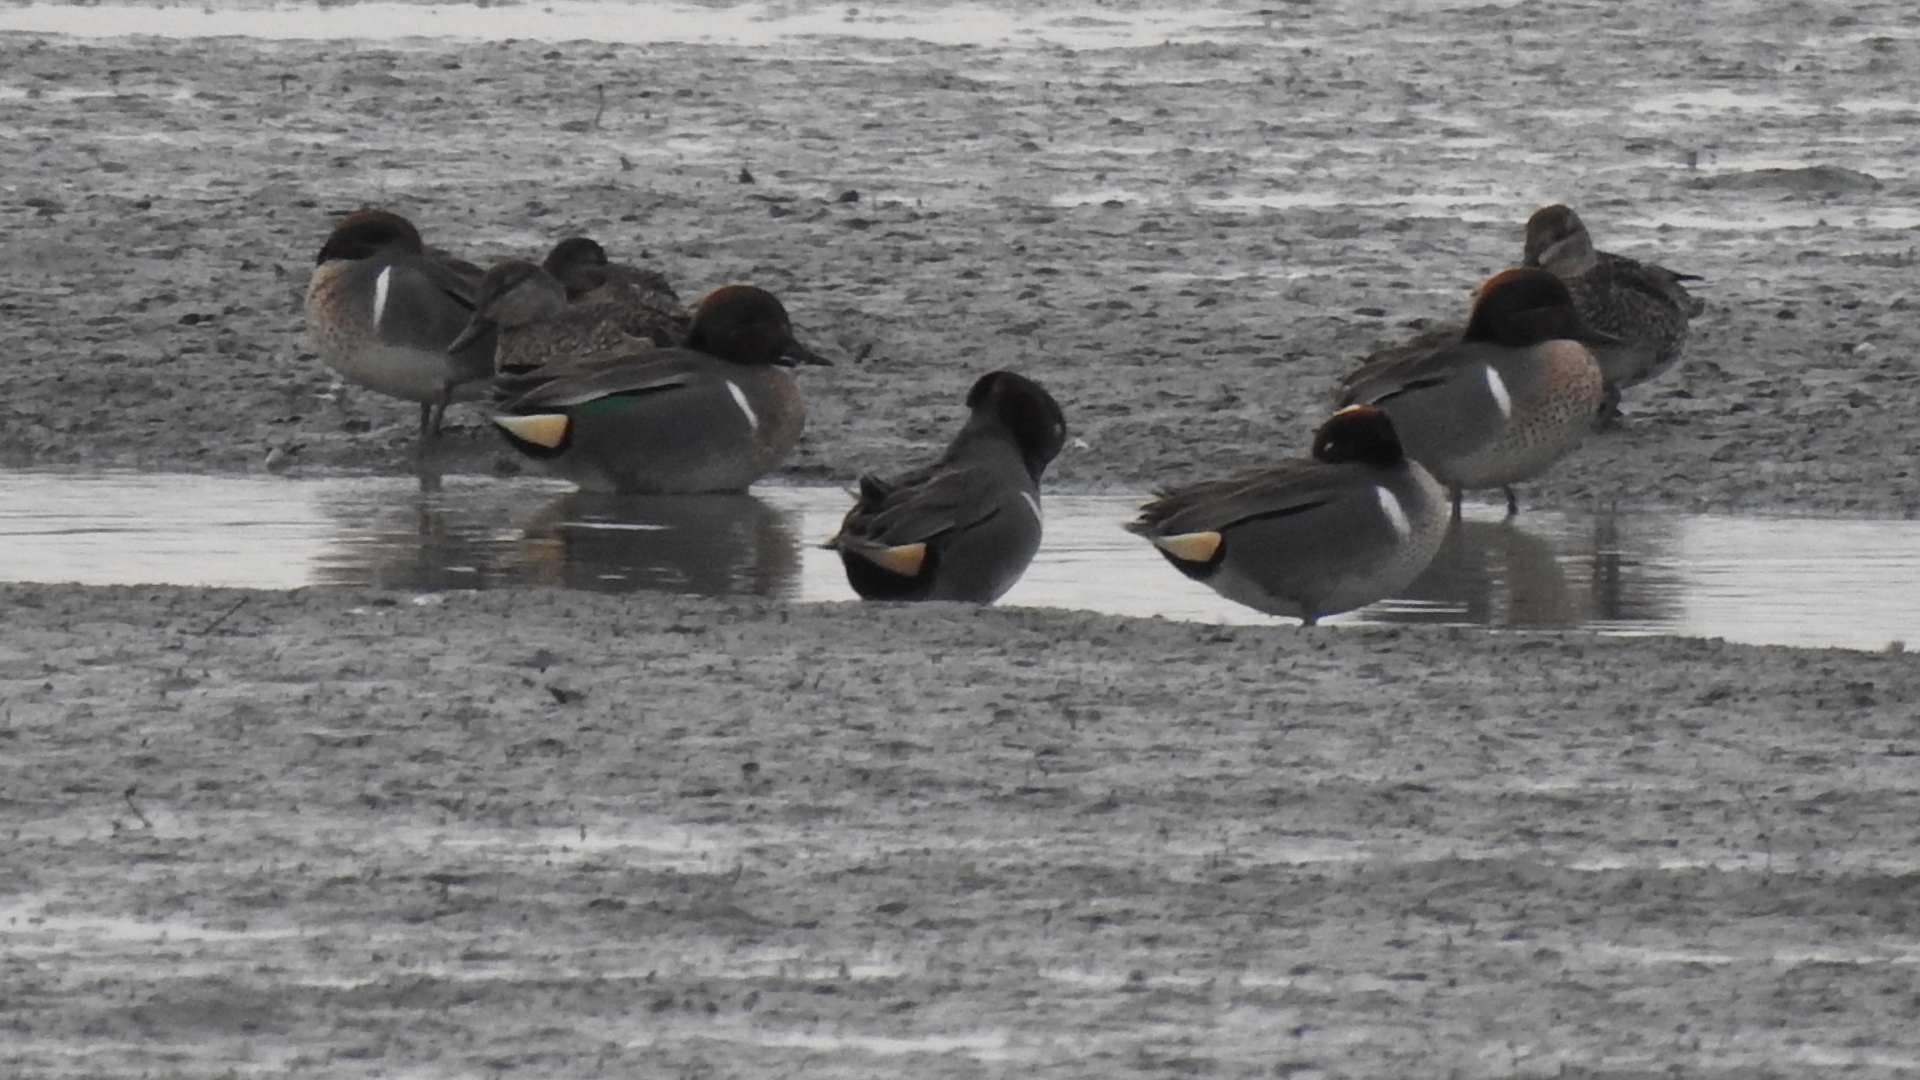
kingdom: Animalia
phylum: Chordata
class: Aves
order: Anseriformes
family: Anatidae
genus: Anas
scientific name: Anas crecca
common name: Eurasian teal
